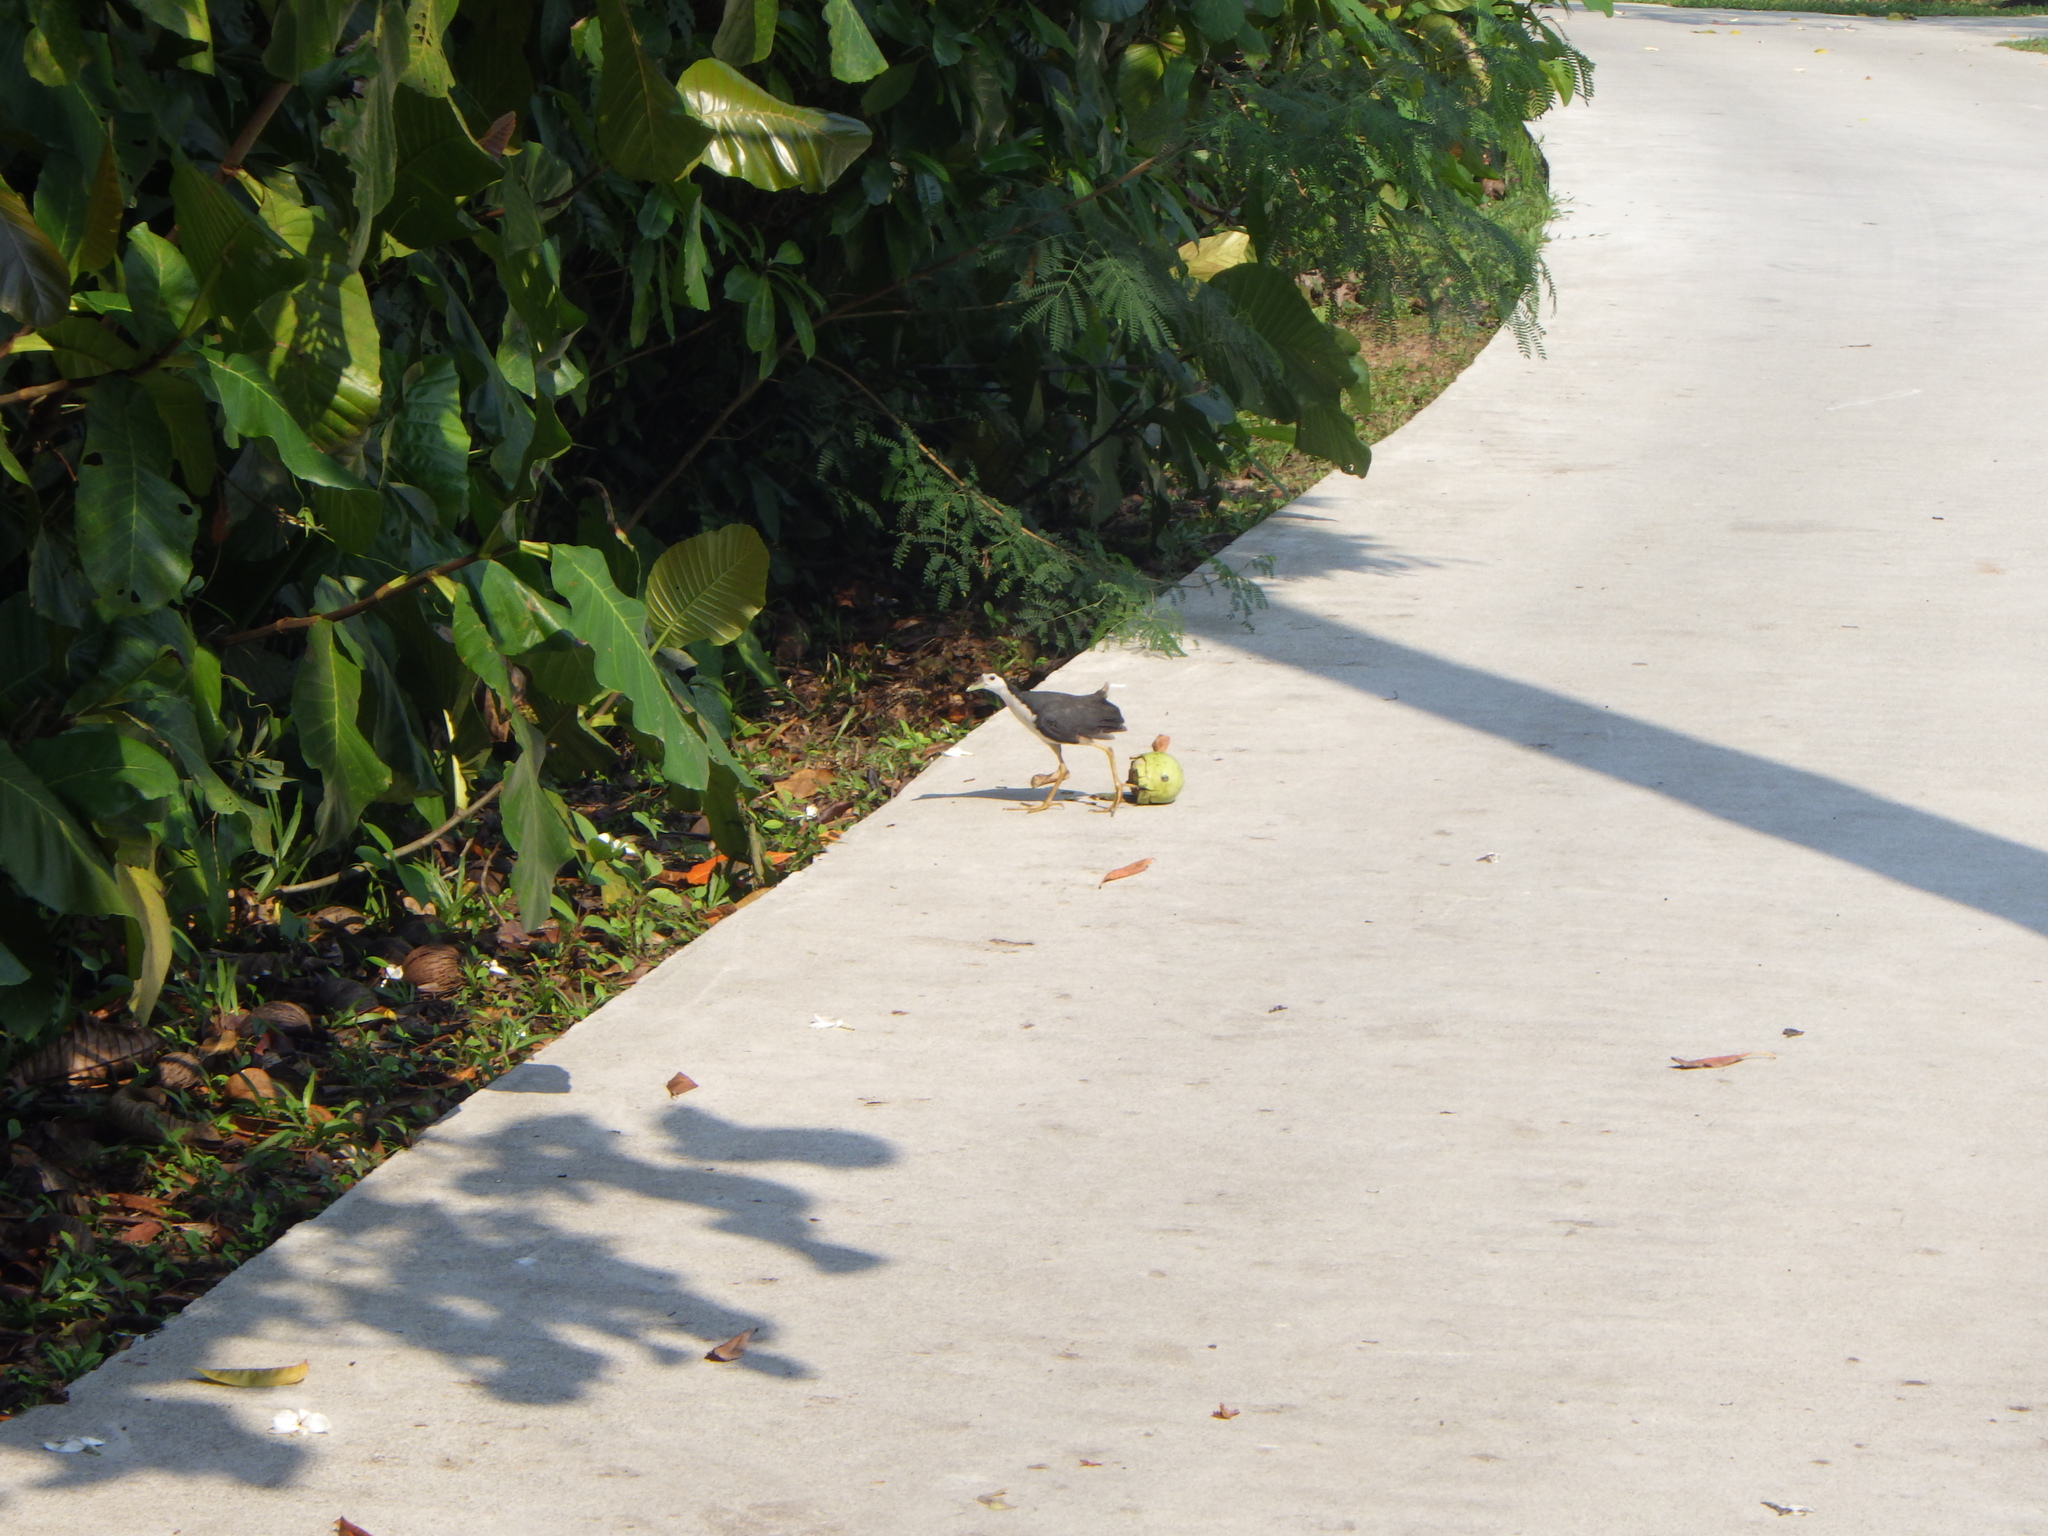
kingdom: Animalia
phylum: Chordata
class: Aves
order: Gruiformes
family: Rallidae
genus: Amaurornis
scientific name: Amaurornis phoenicurus
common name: White-breasted waterhen
